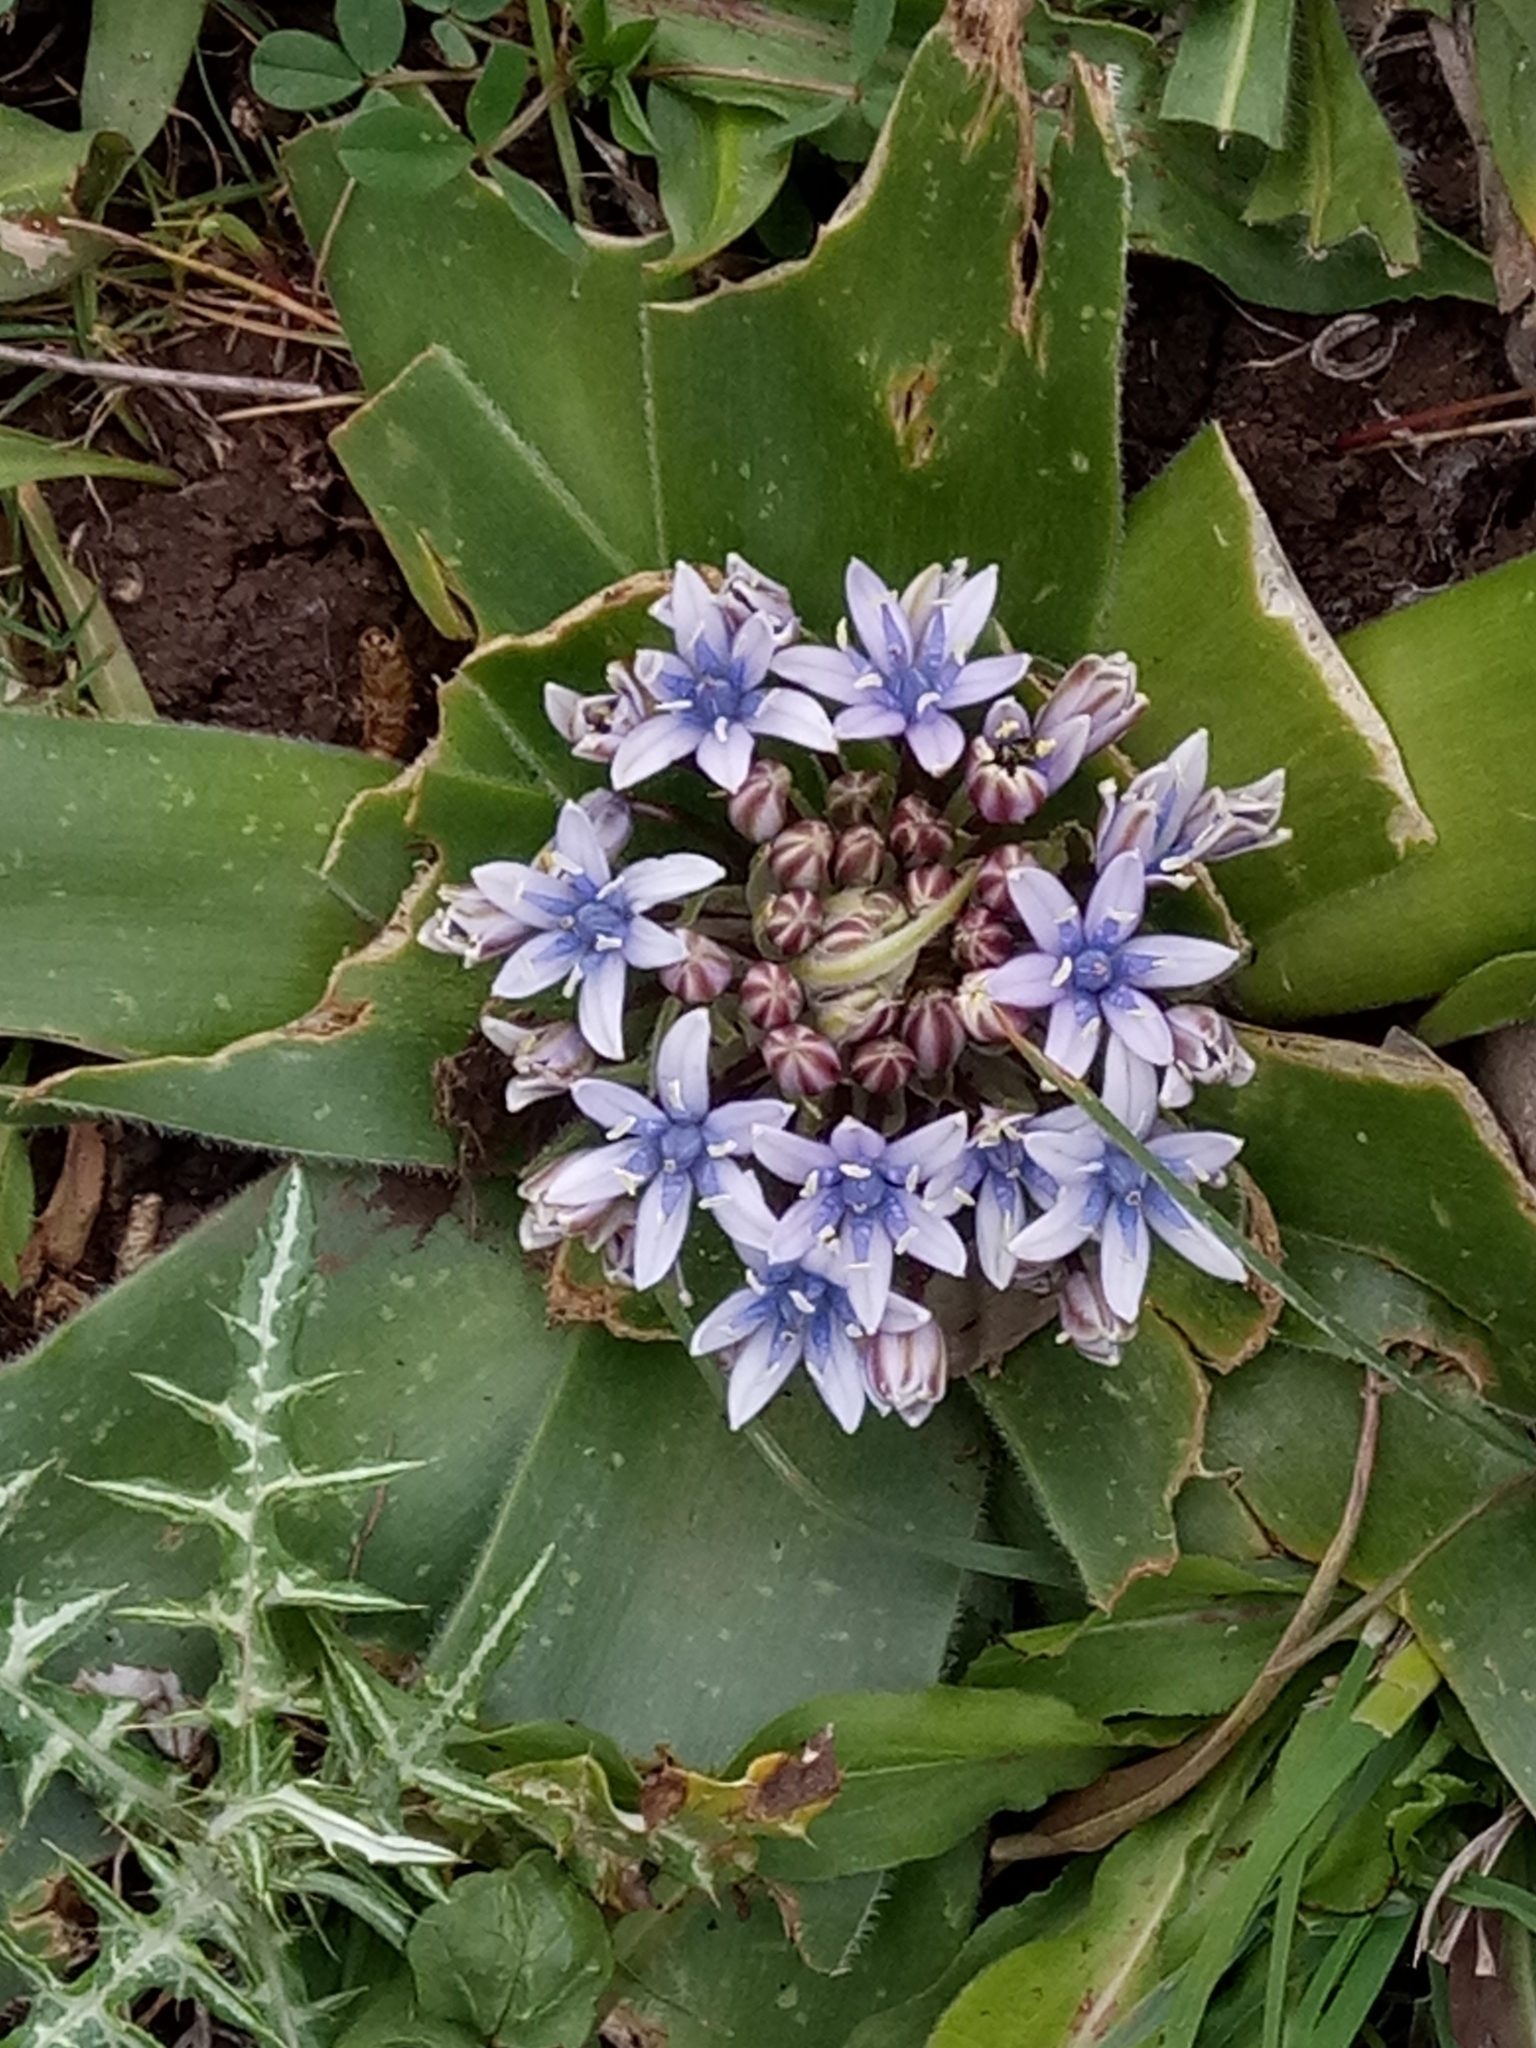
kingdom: Plantae
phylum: Tracheophyta
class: Liliopsida
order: Asparagales
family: Asparagaceae
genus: Scilla
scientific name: Scilla peruviana
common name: Portuguese squill
